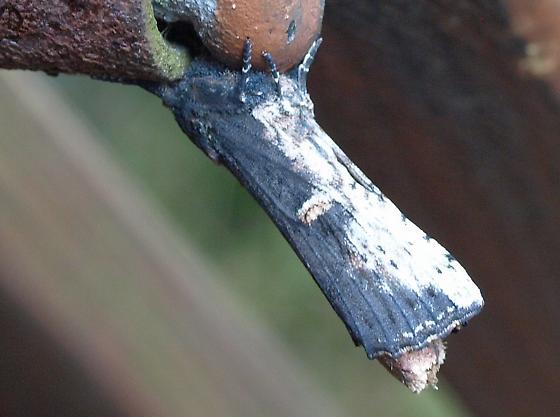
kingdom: Animalia
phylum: Arthropoda
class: Insecta
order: Lepidoptera
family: Notodontidae
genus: Schizura
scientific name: Schizura ipomaeae
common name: Morning-glory prominent
